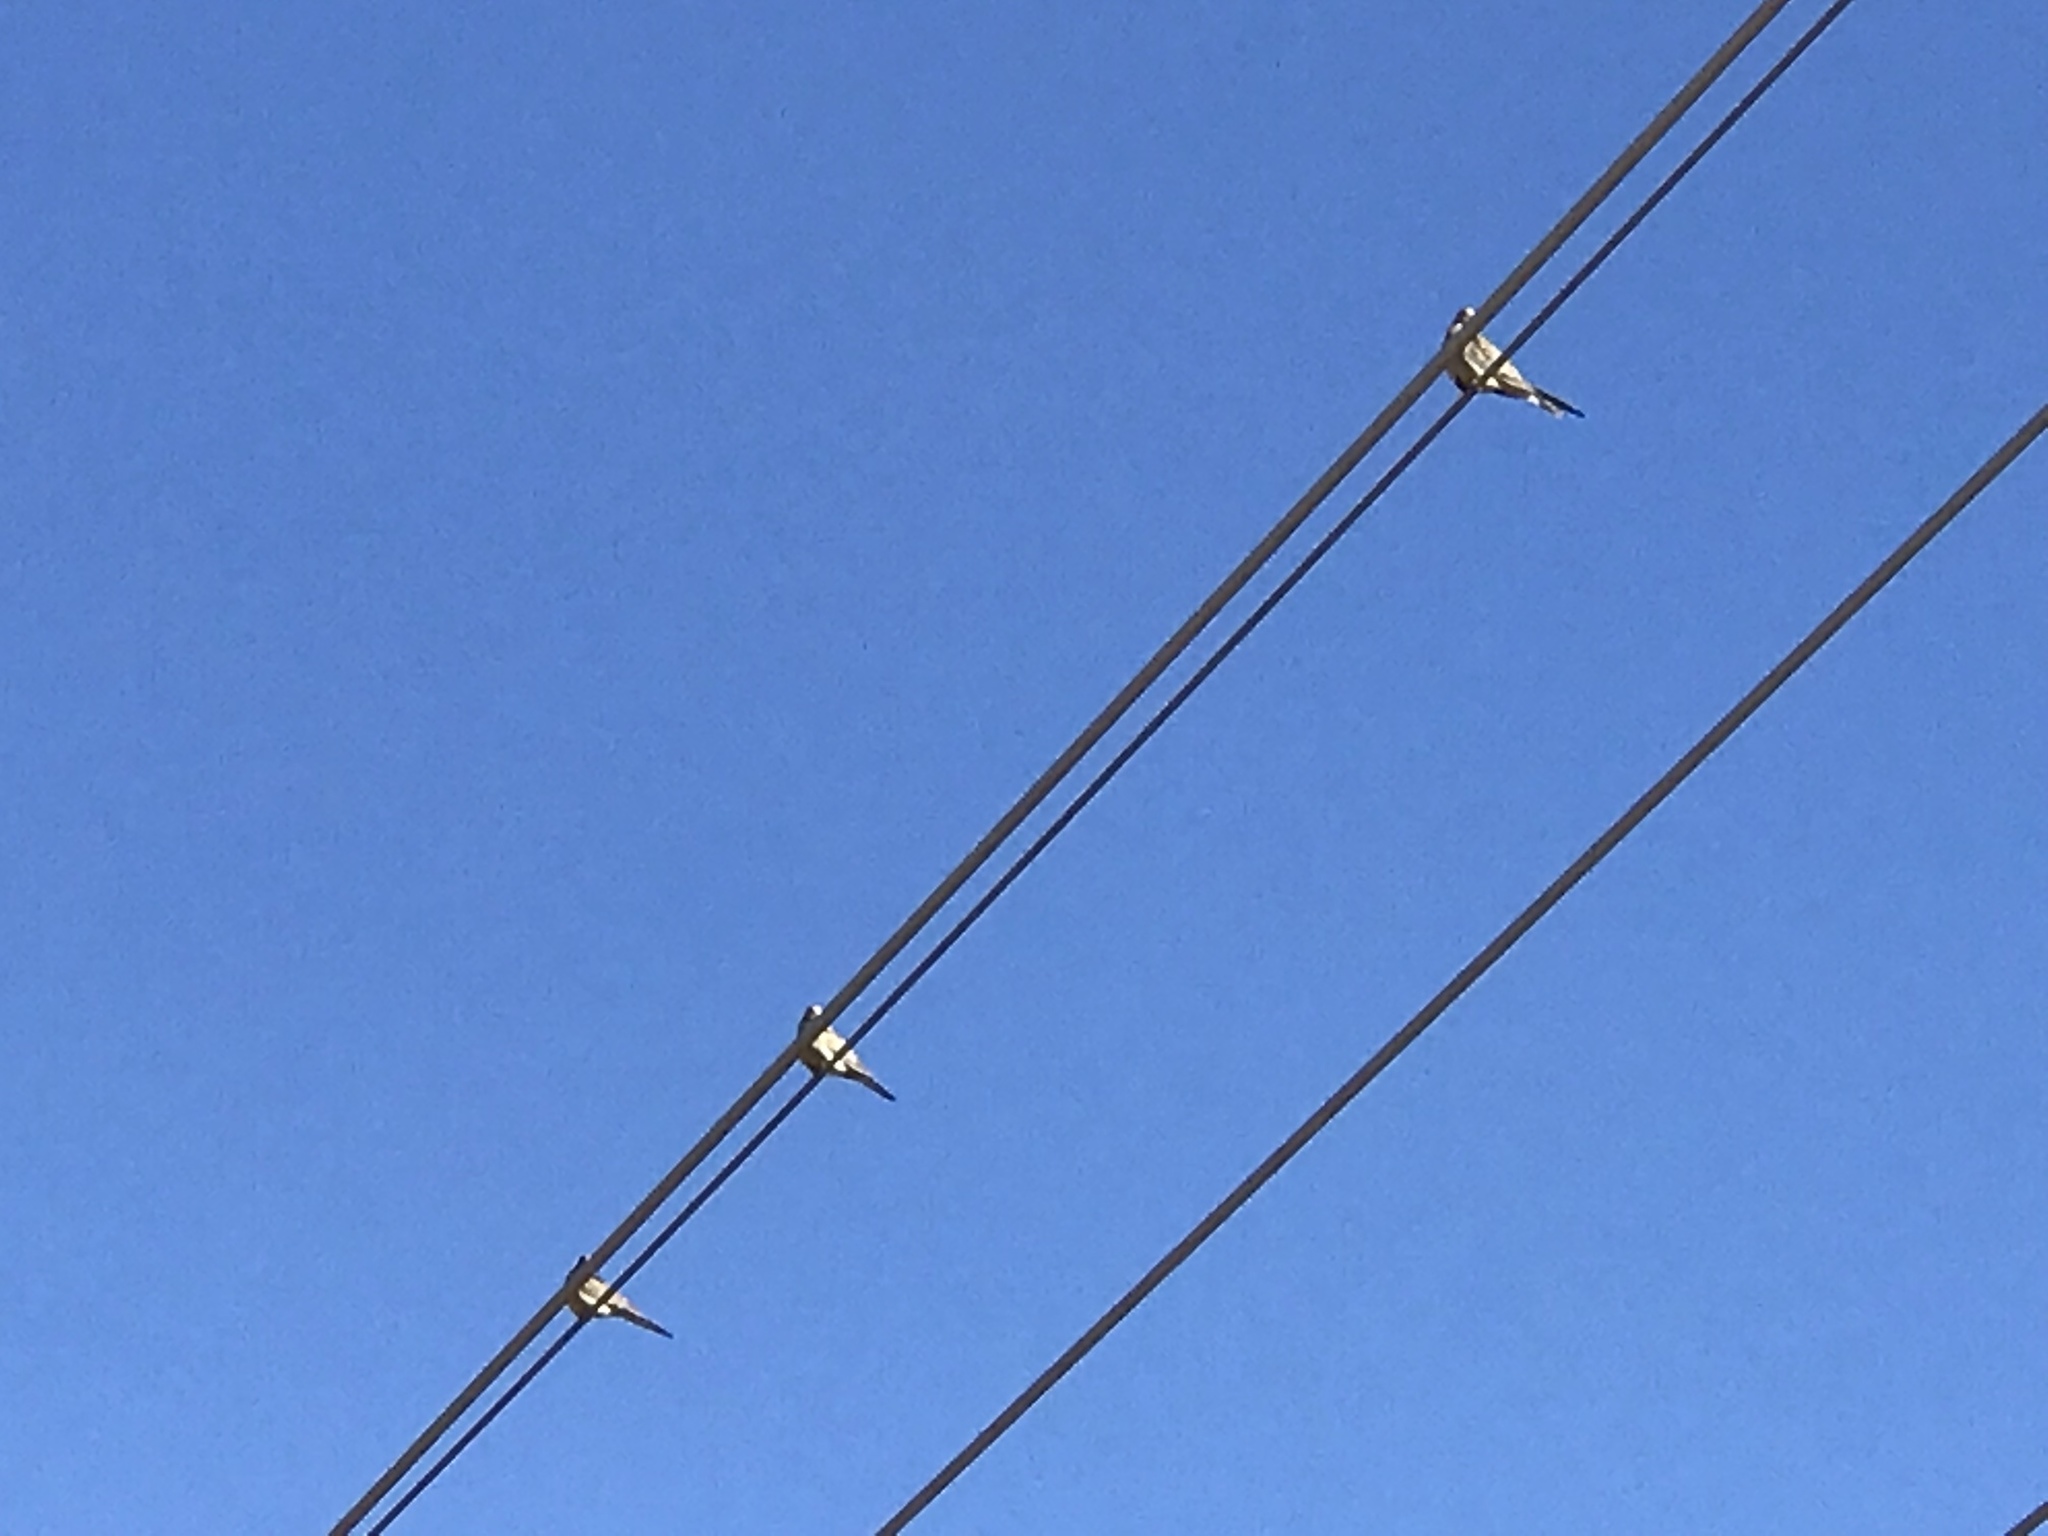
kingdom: Animalia
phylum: Chordata
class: Aves
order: Columbiformes
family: Columbidae
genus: Zenaida
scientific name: Zenaida macroura
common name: Mourning dove
